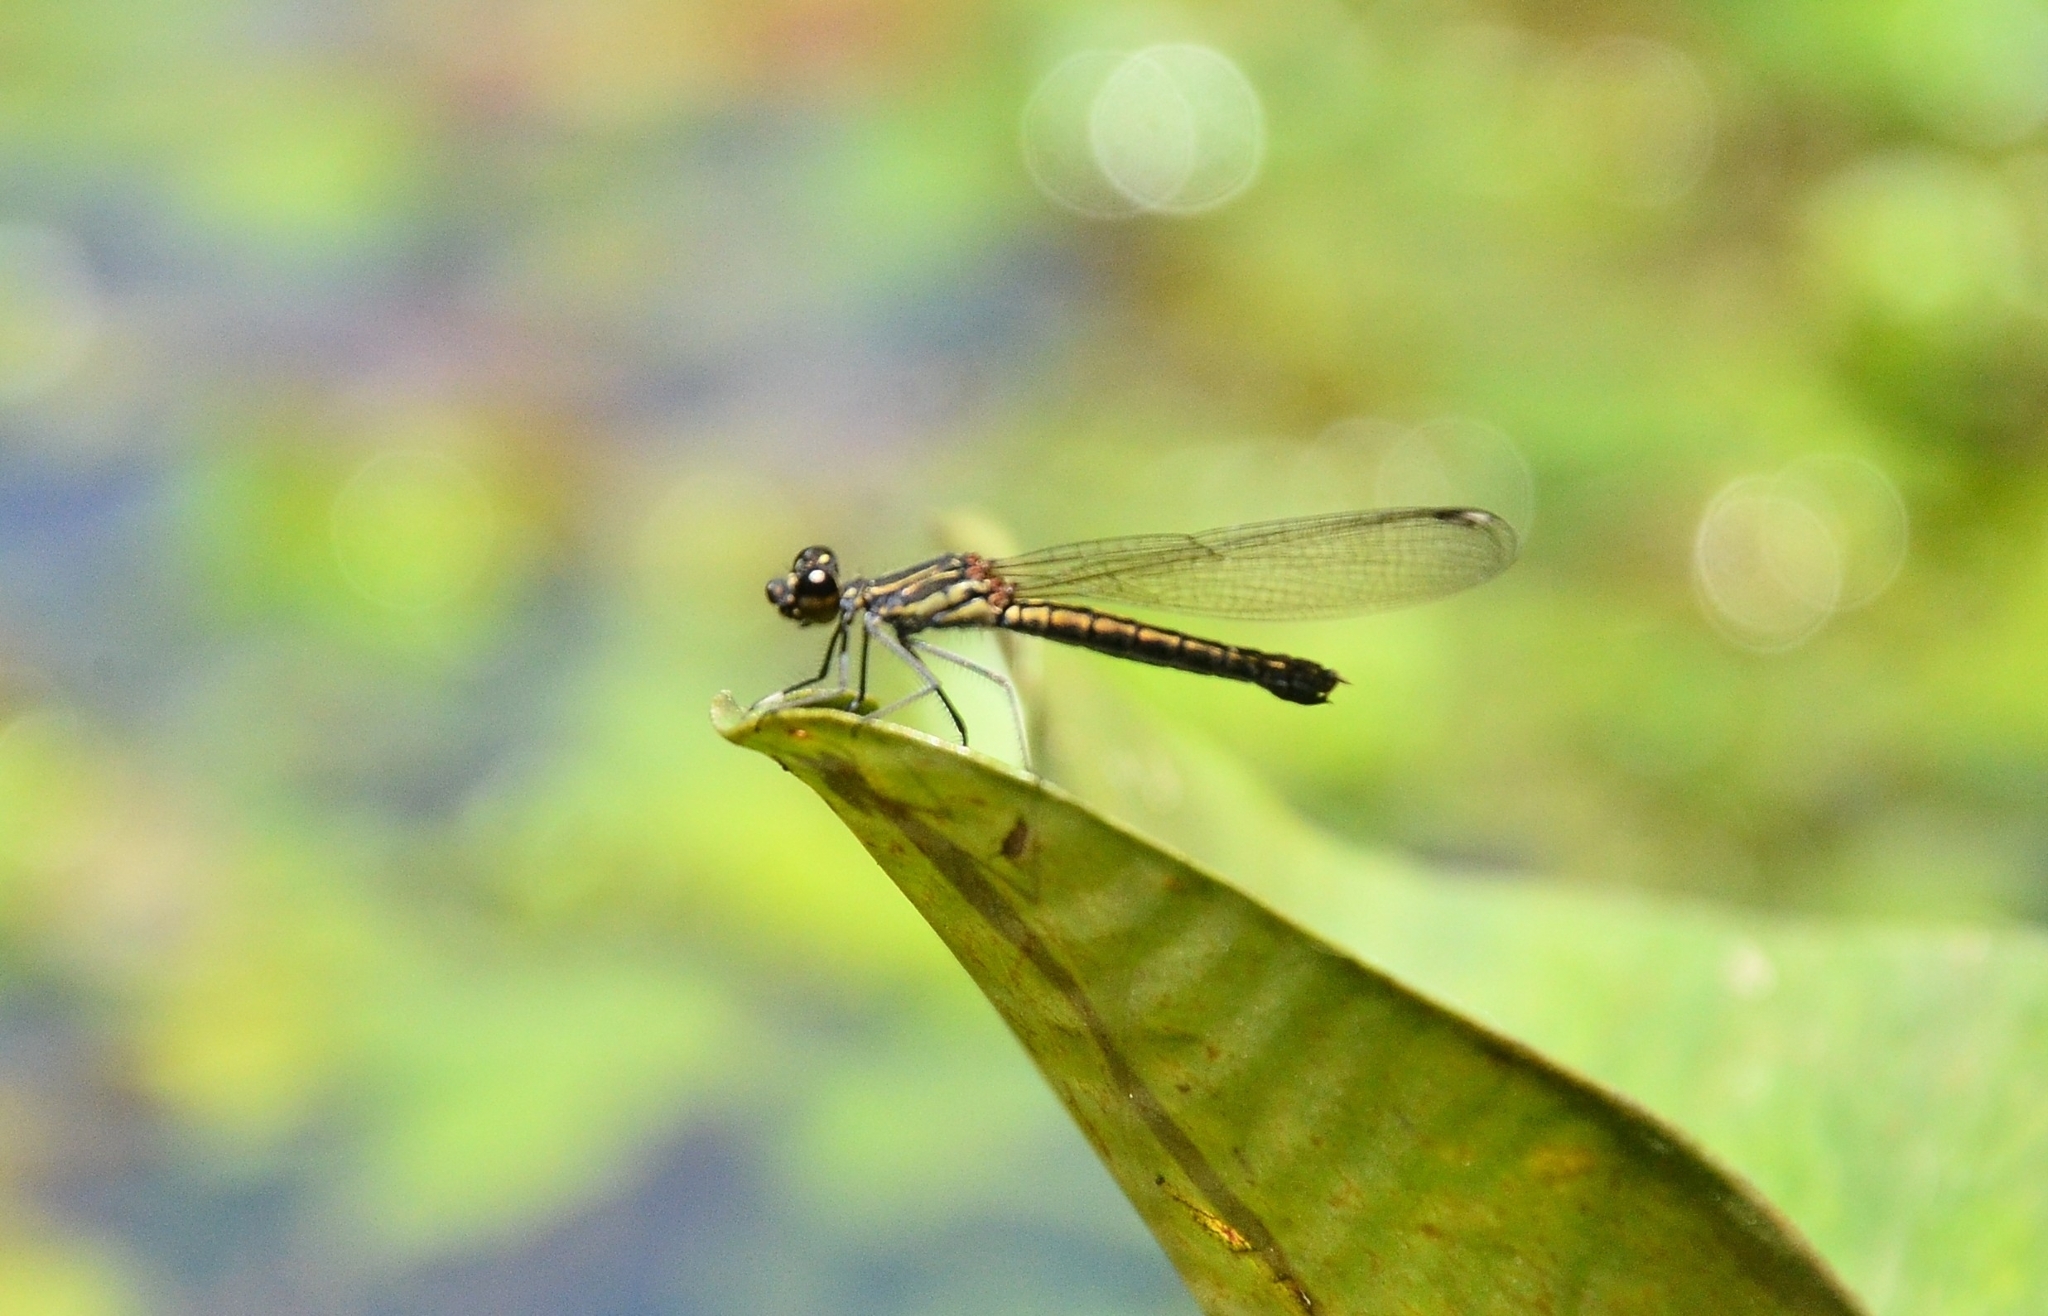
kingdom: Animalia
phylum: Arthropoda
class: Insecta
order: Odonata
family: Chlorocyphidae
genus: Libellago
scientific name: Libellago indica
